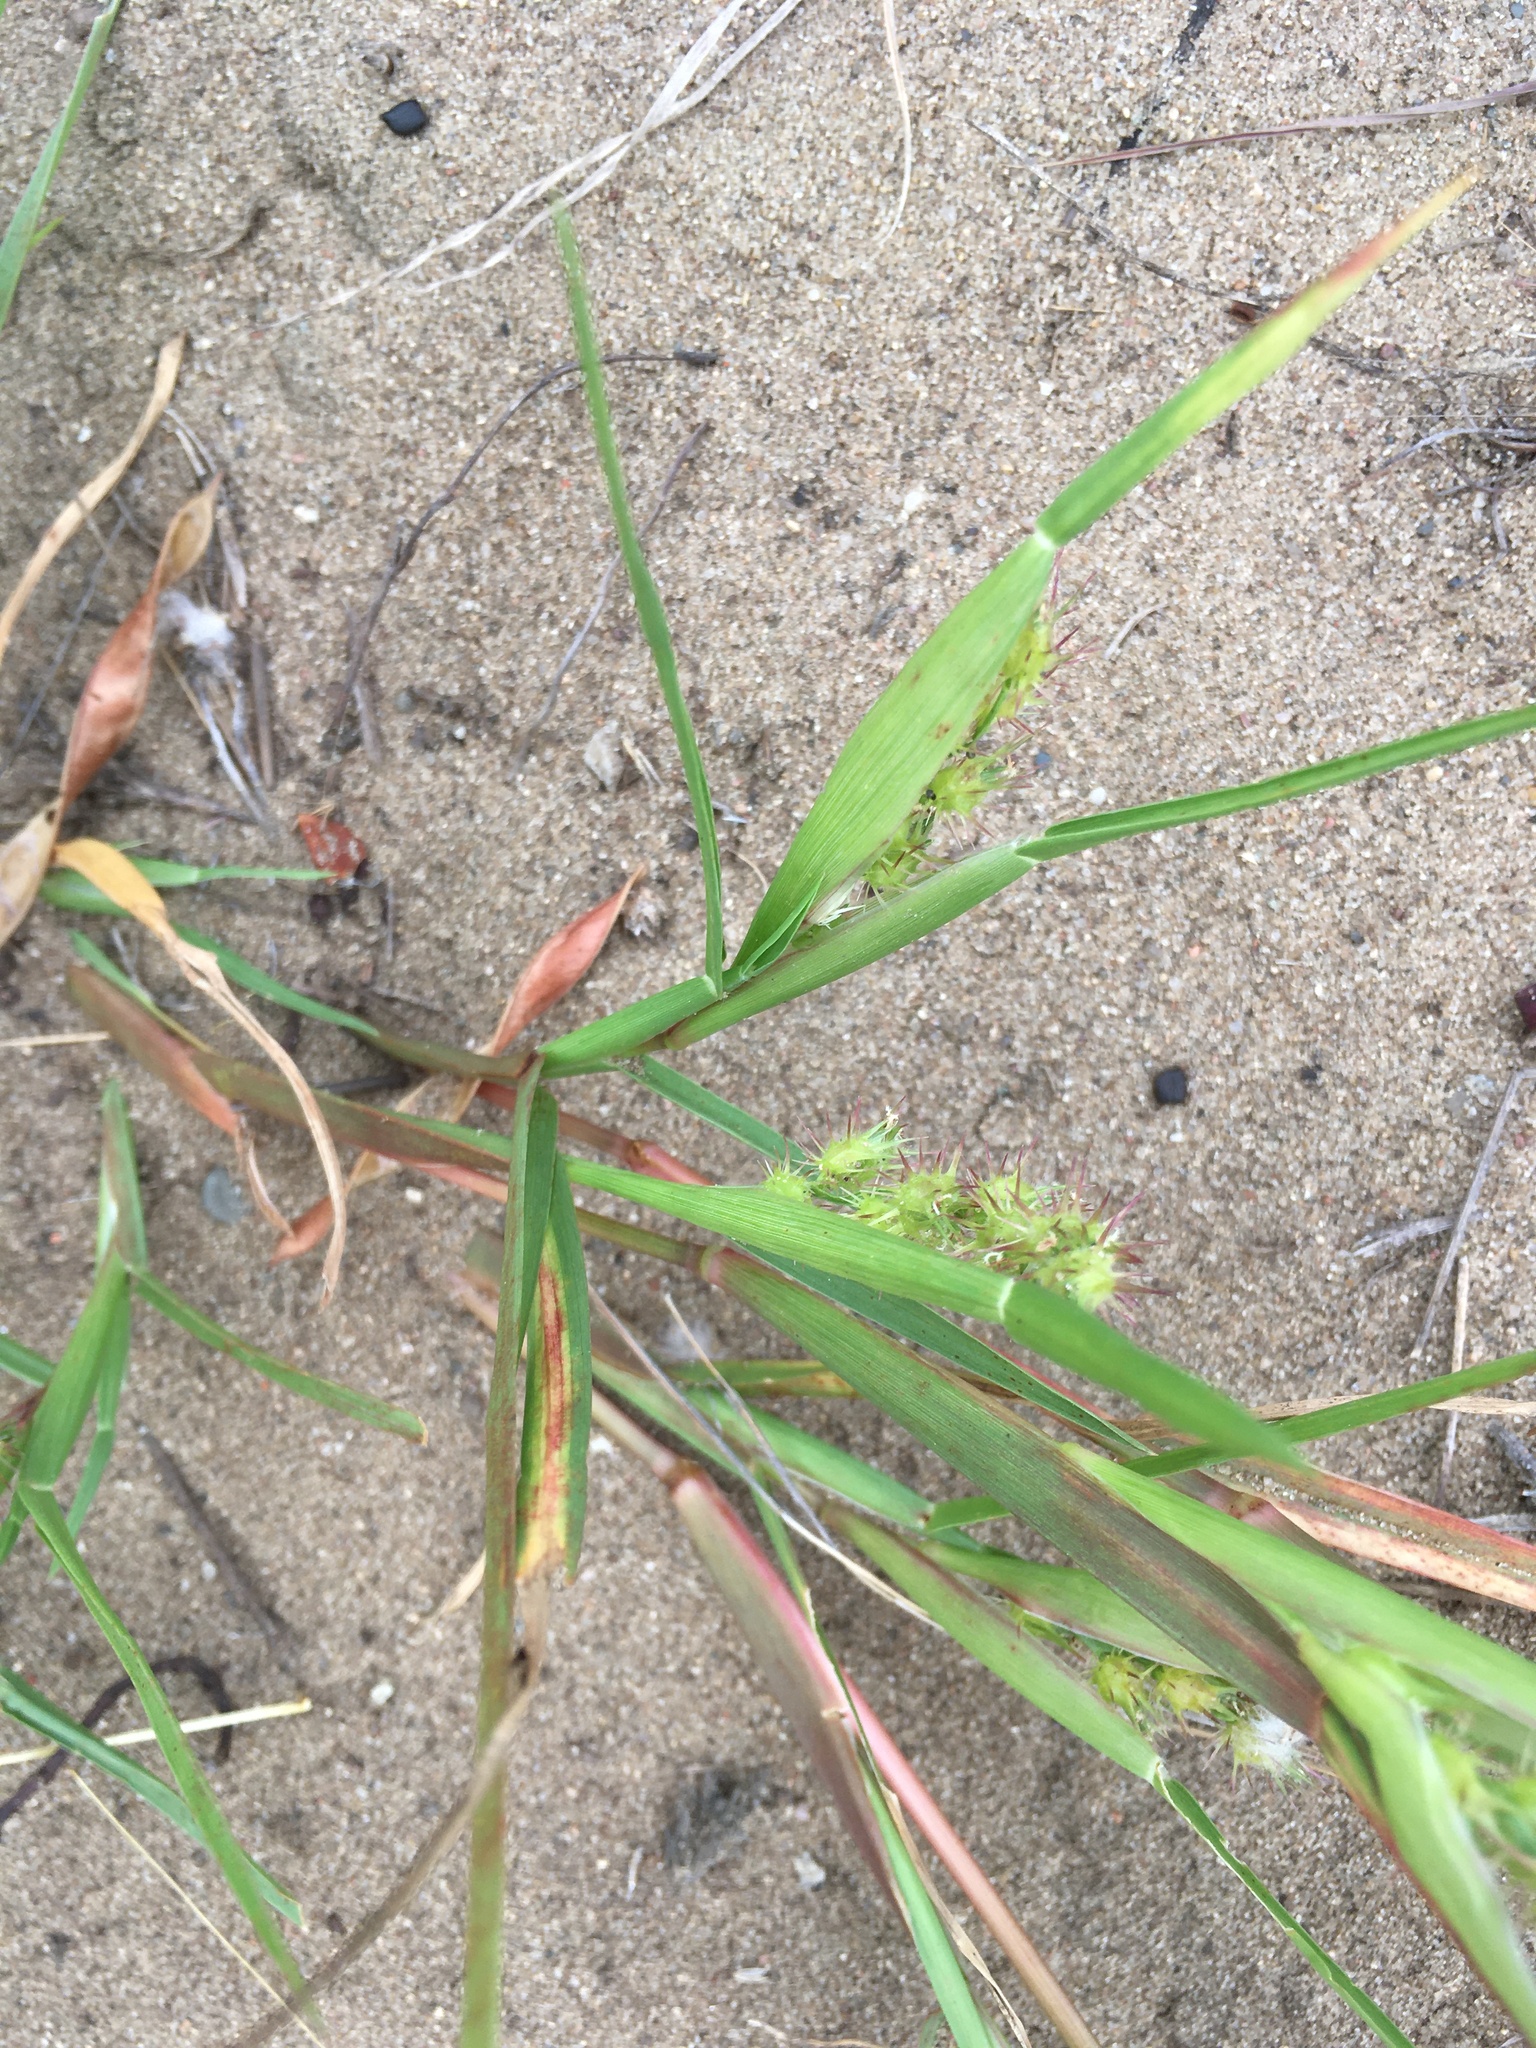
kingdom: Plantae
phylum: Tracheophyta
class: Liliopsida
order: Poales
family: Poaceae
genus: Cenchrus
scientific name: Cenchrus longispinus
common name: Mat sandbur
